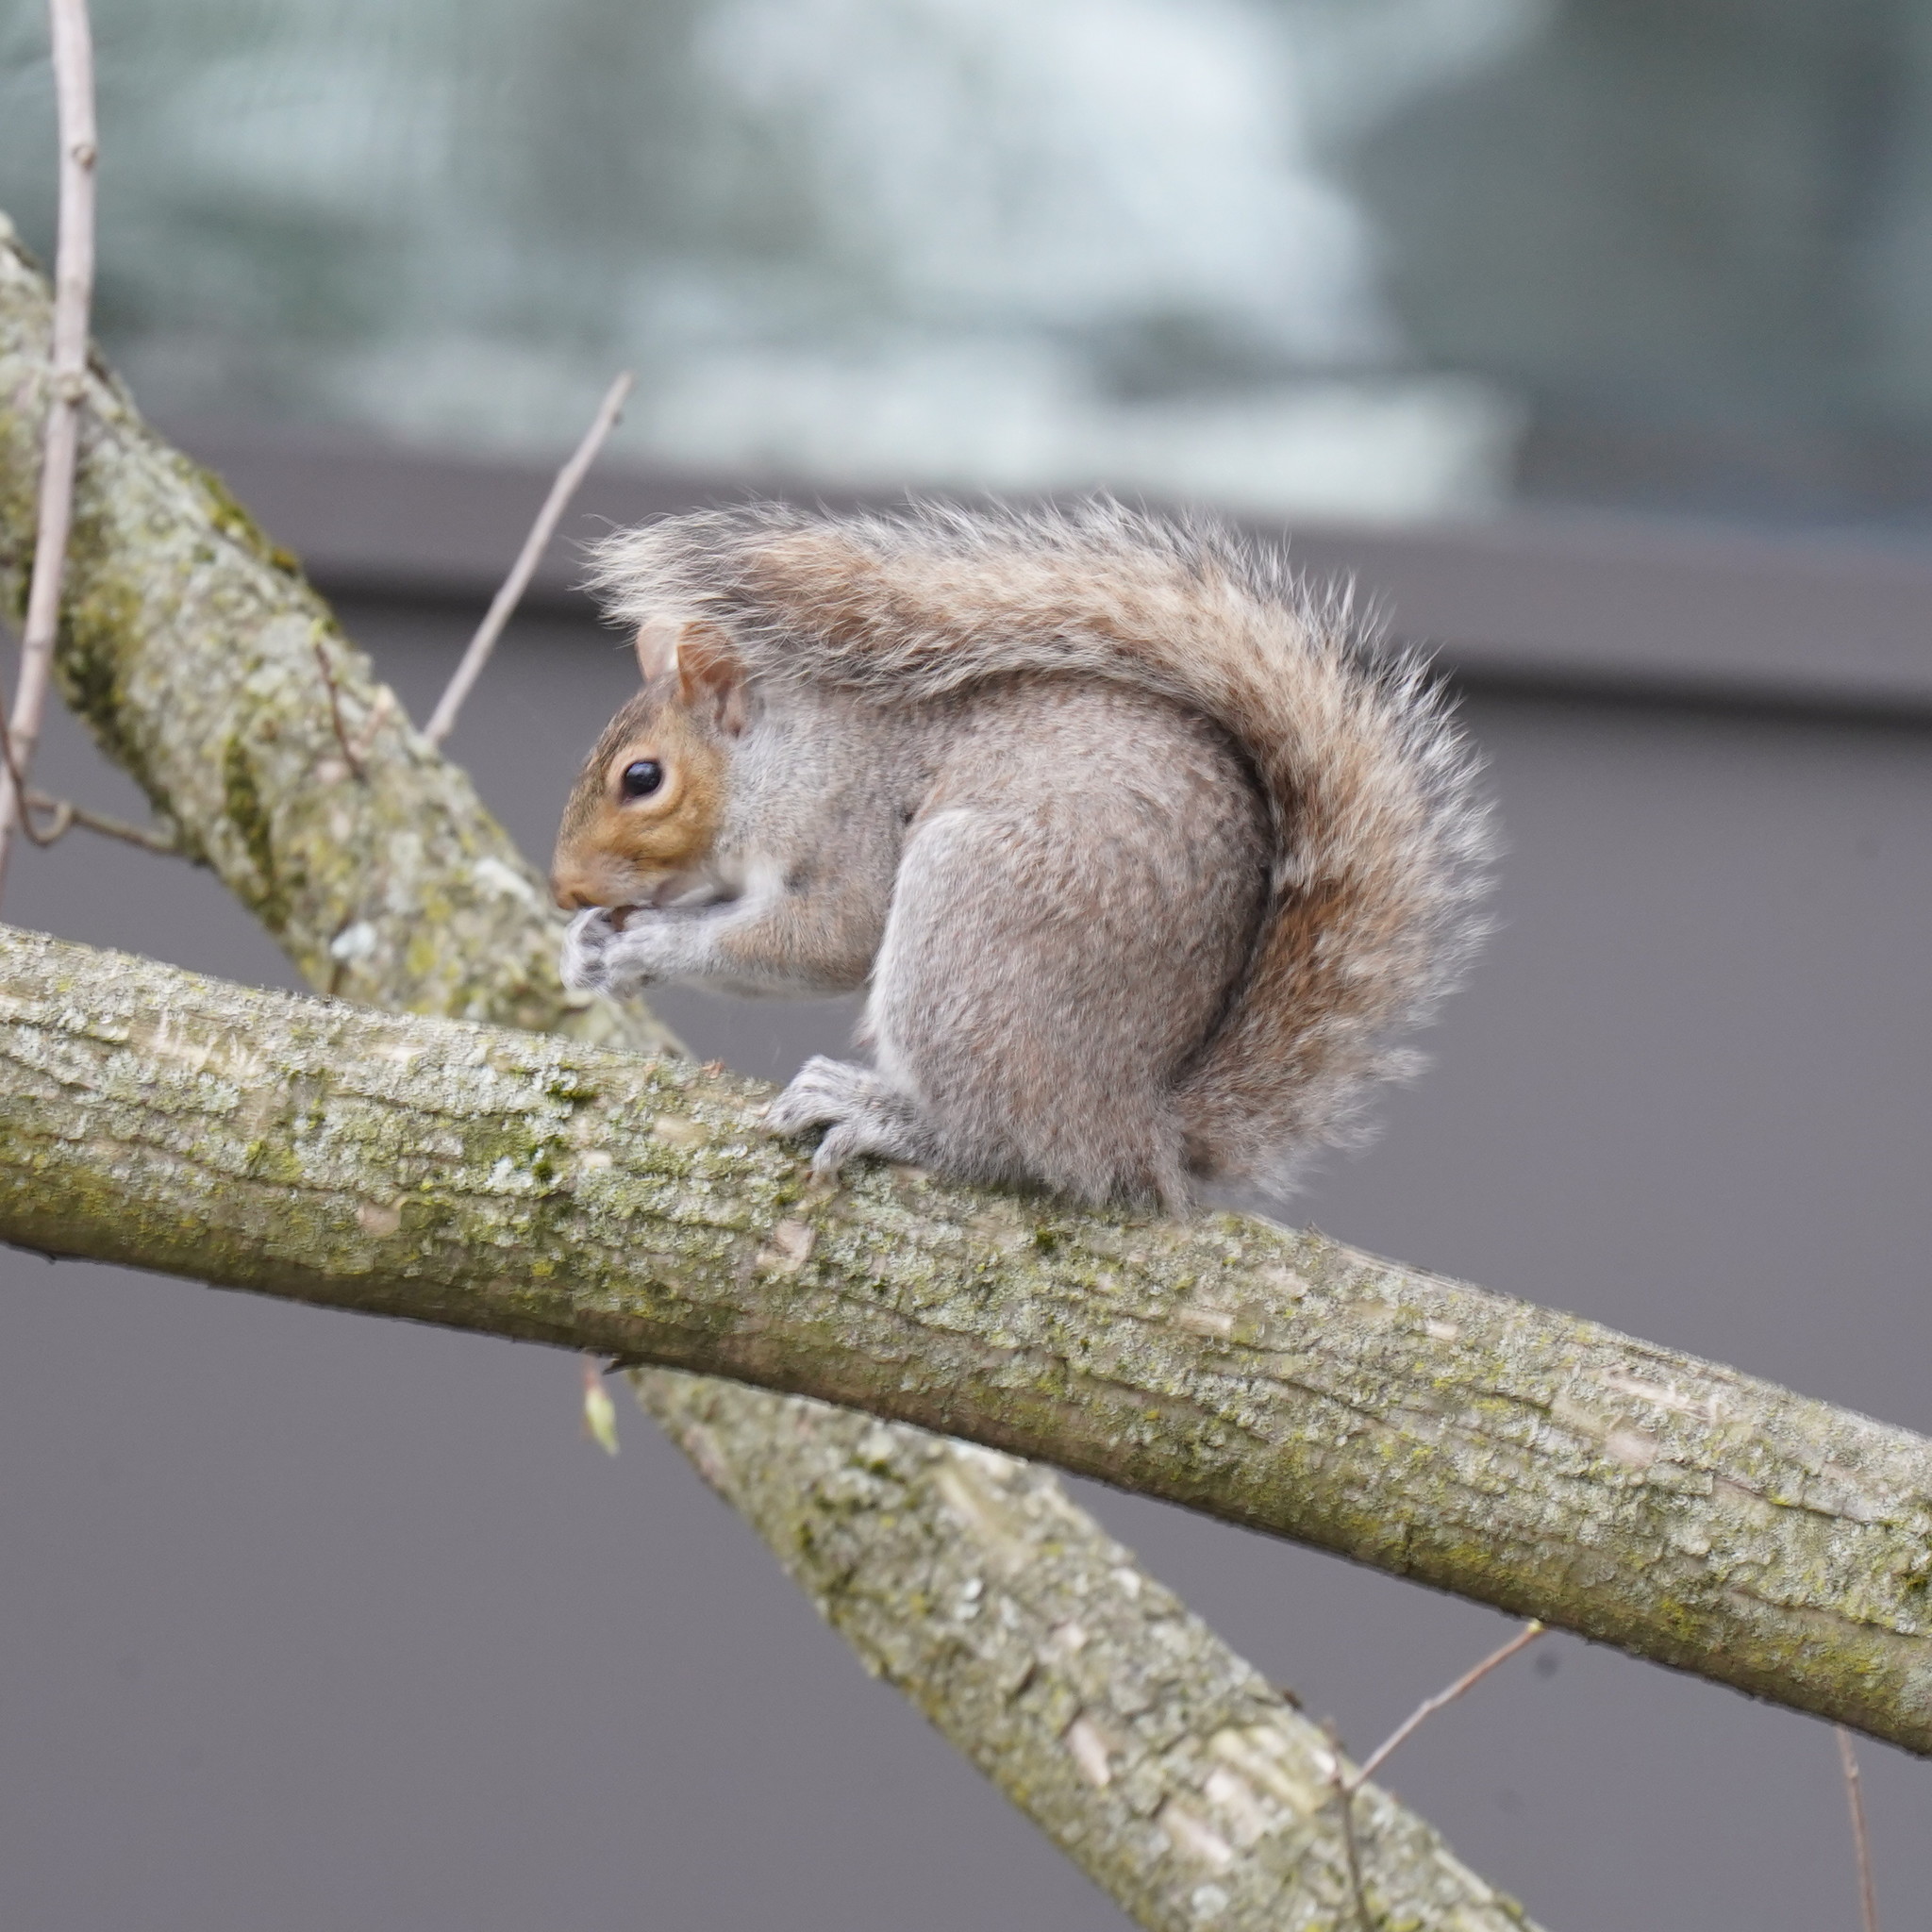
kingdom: Animalia
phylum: Chordata
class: Mammalia
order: Rodentia
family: Sciuridae
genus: Sciurus
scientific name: Sciurus carolinensis
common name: Eastern gray squirrel
